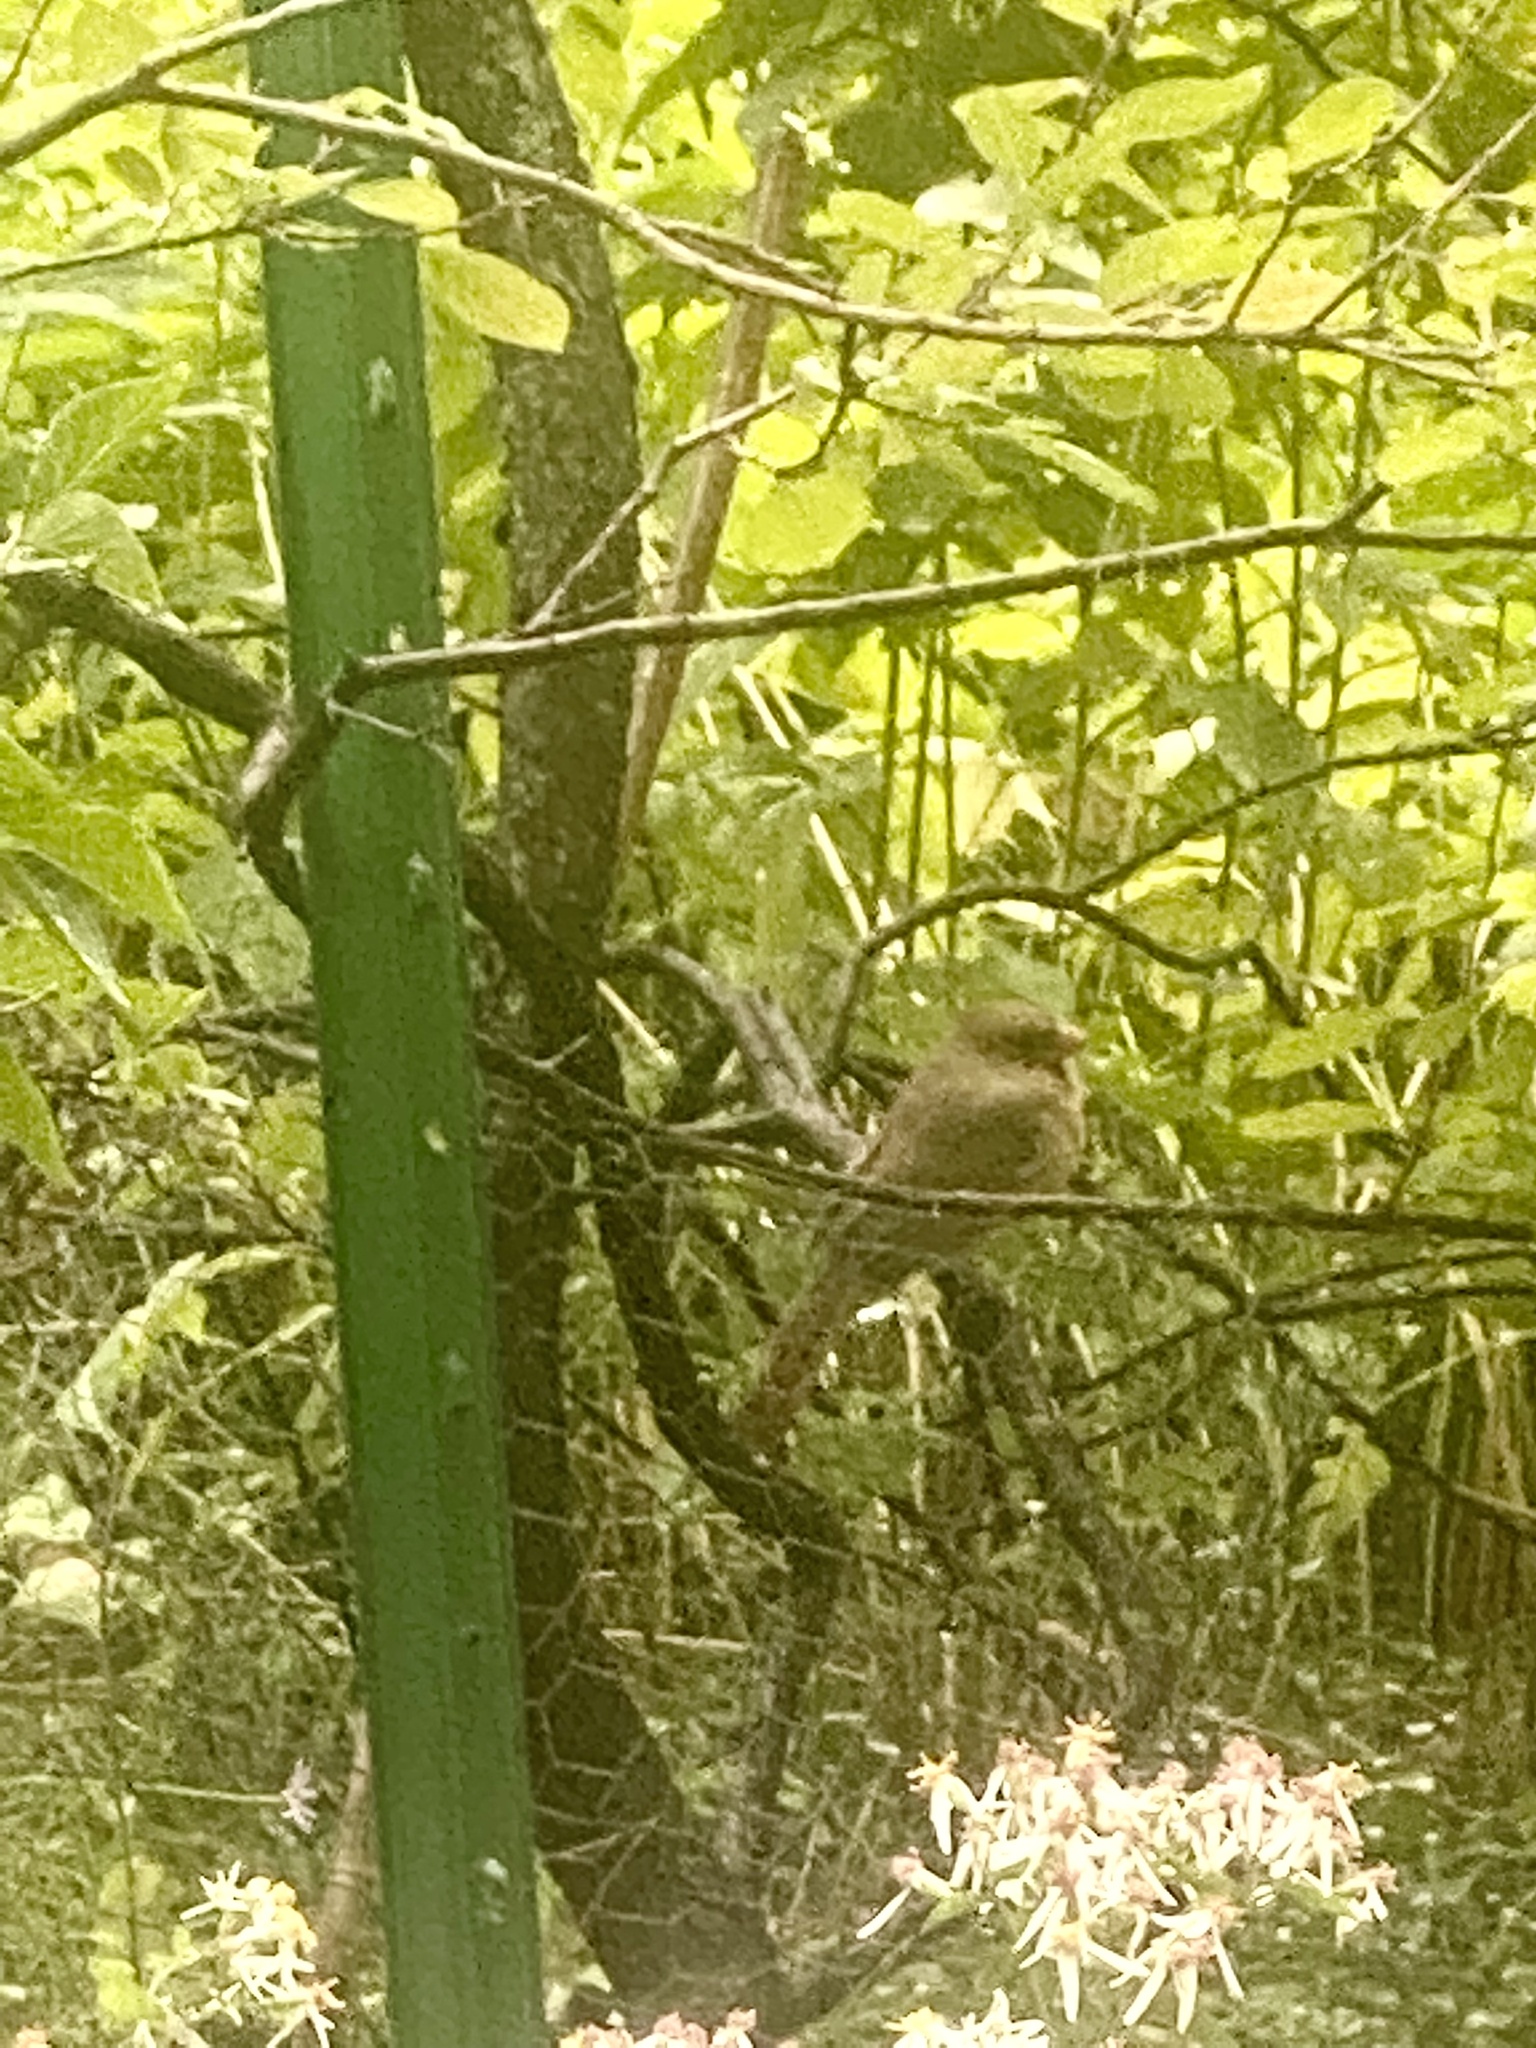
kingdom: Animalia
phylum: Chordata
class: Aves
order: Passeriformes
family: Cardinalidae
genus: Cardinalis
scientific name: Cardinalis cardinalis
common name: Northern cardinal
